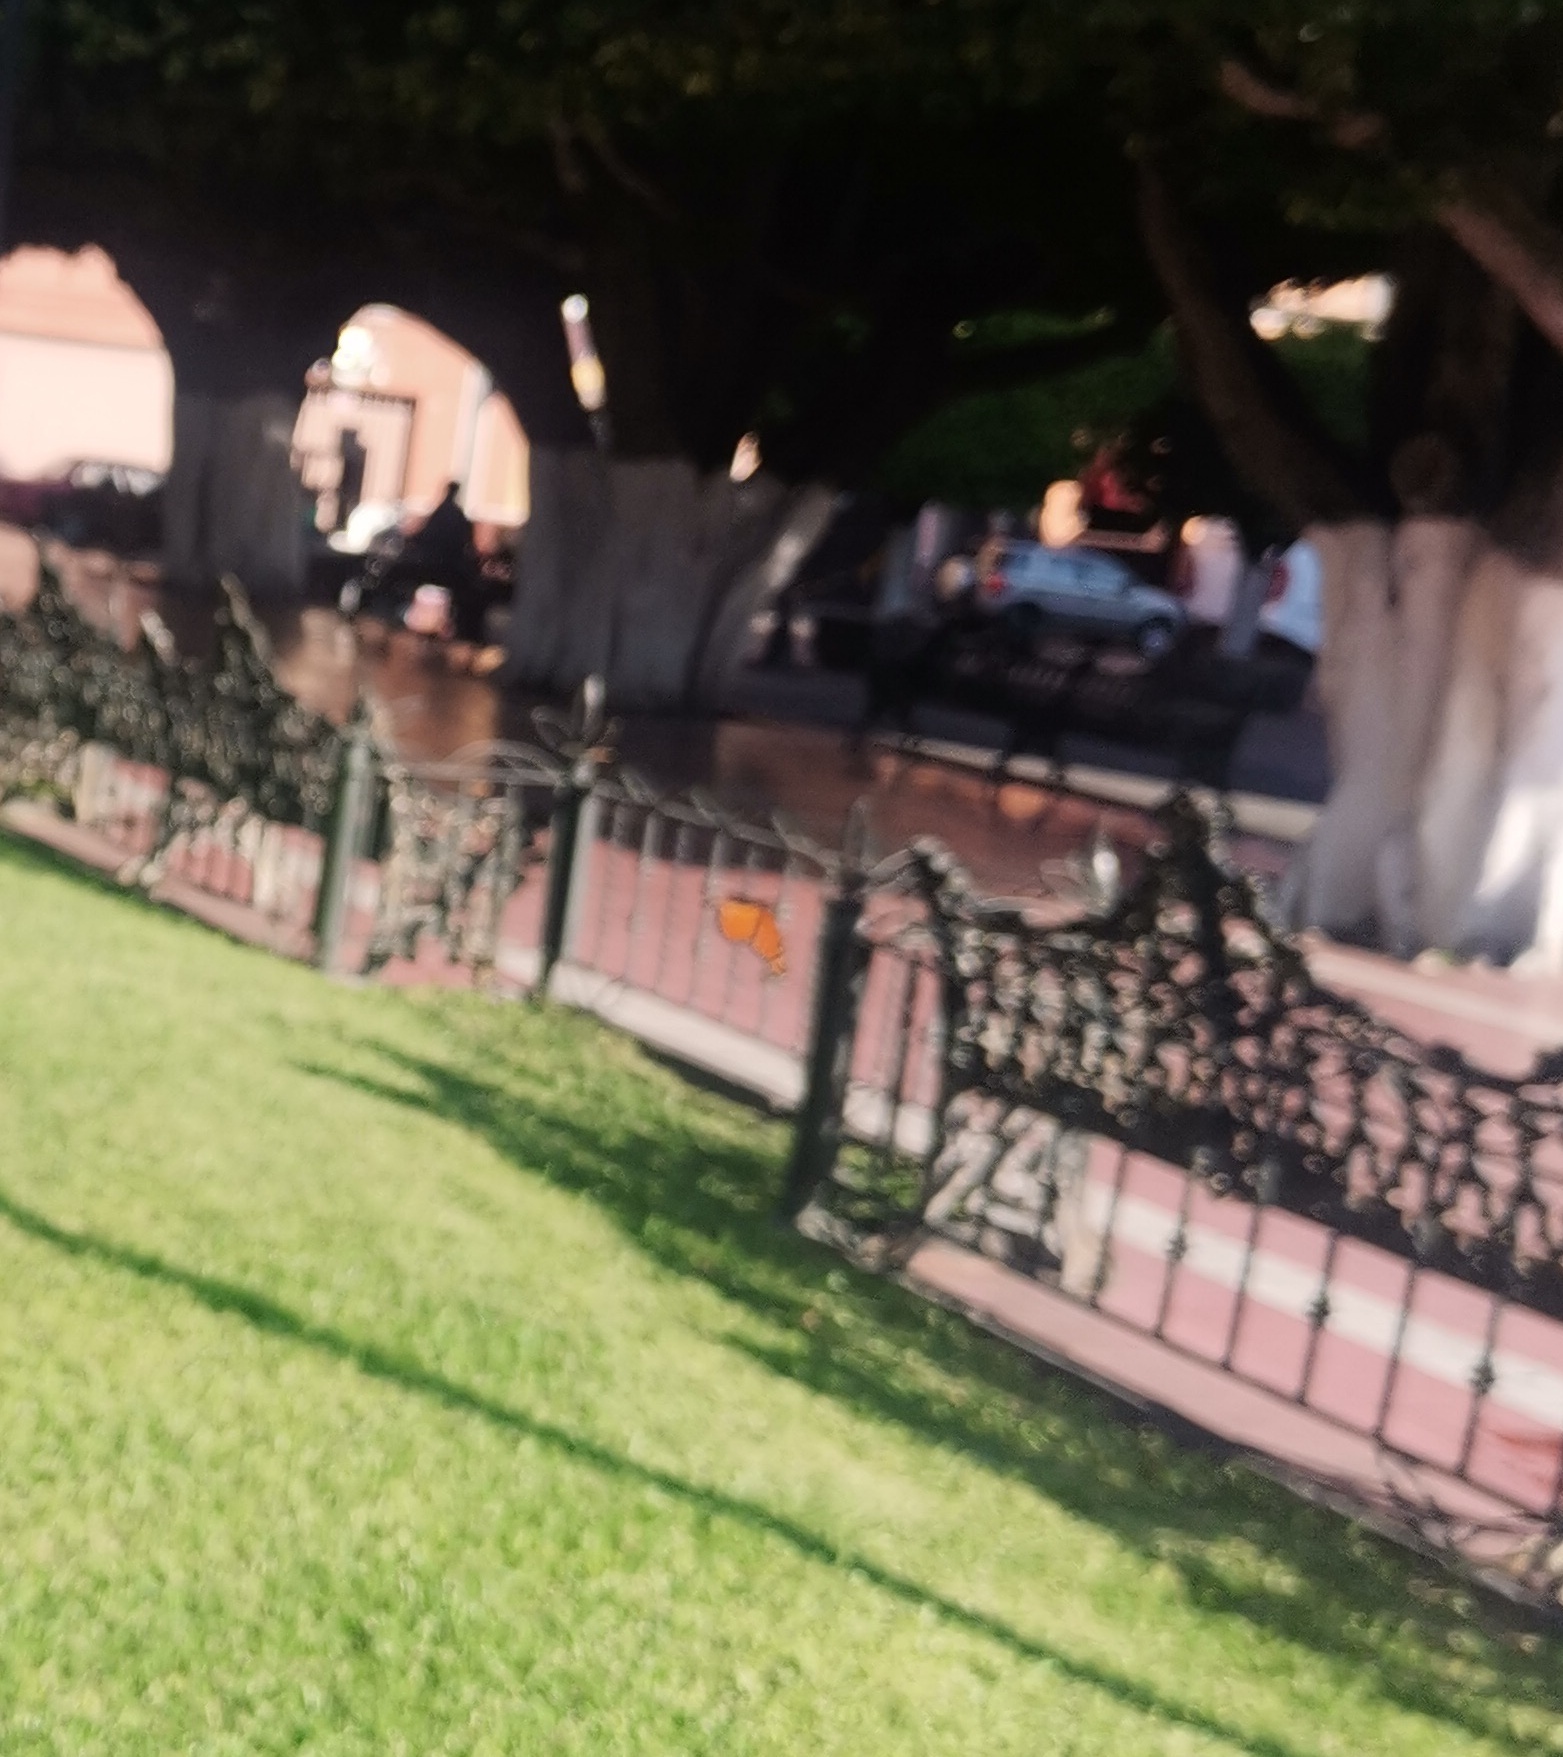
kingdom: Animalia
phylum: Arthropoda
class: Insecta
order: Lepidoptera
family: Nymphalidae
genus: Danaus
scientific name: Danaus plexippus
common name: Monarch
